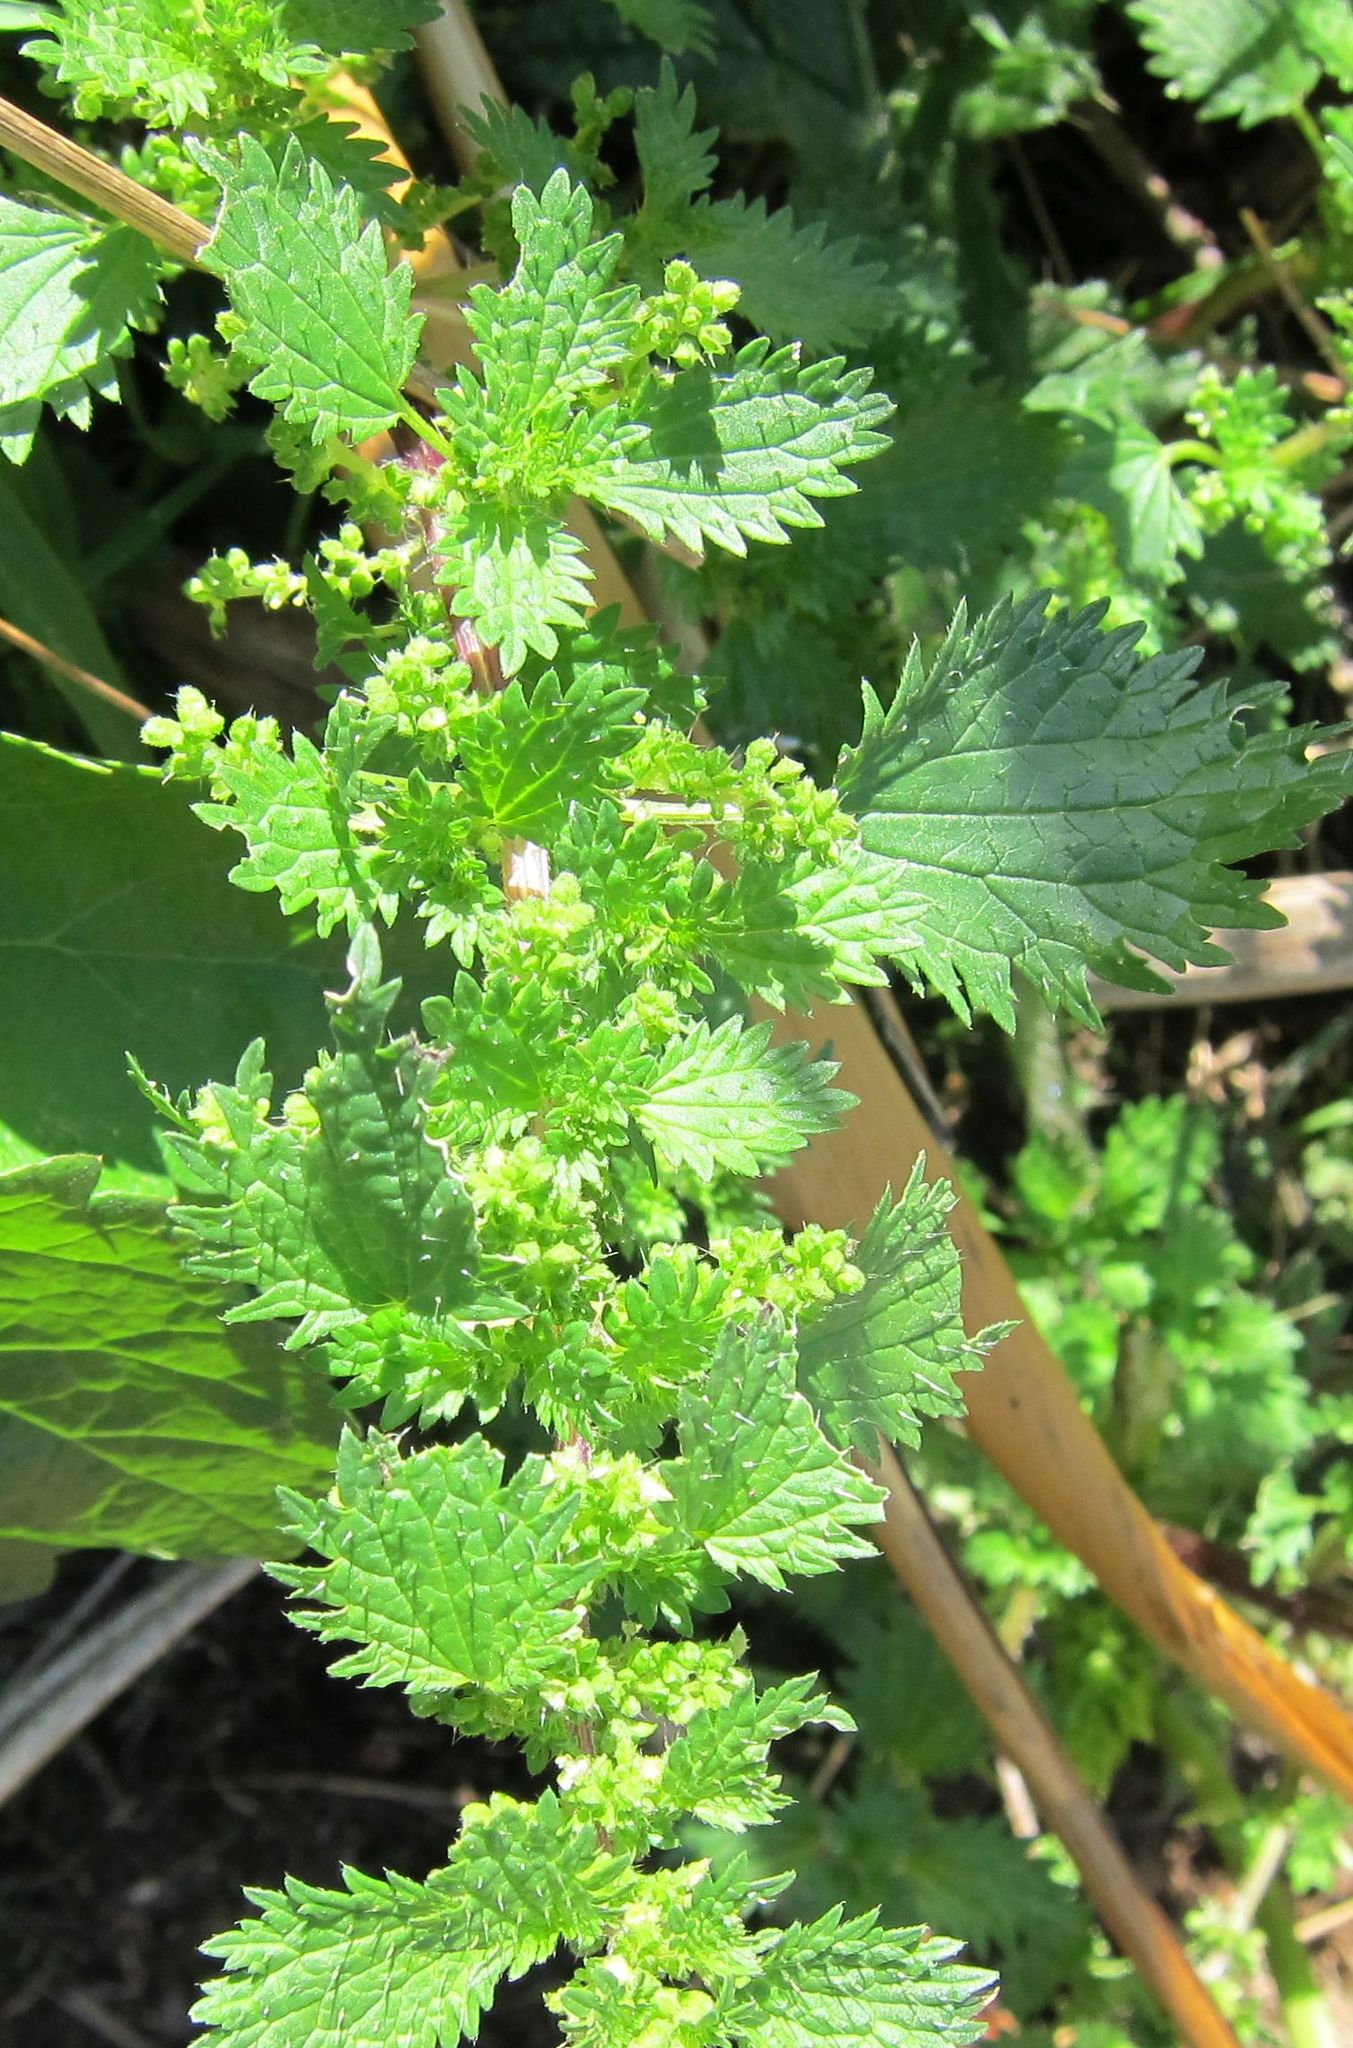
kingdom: Plantae
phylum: Tracheophyta
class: Magnoliopsida
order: Rosales
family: Urticaceae
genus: Urtica
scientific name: Urtica urens
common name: Dwarf nettle
